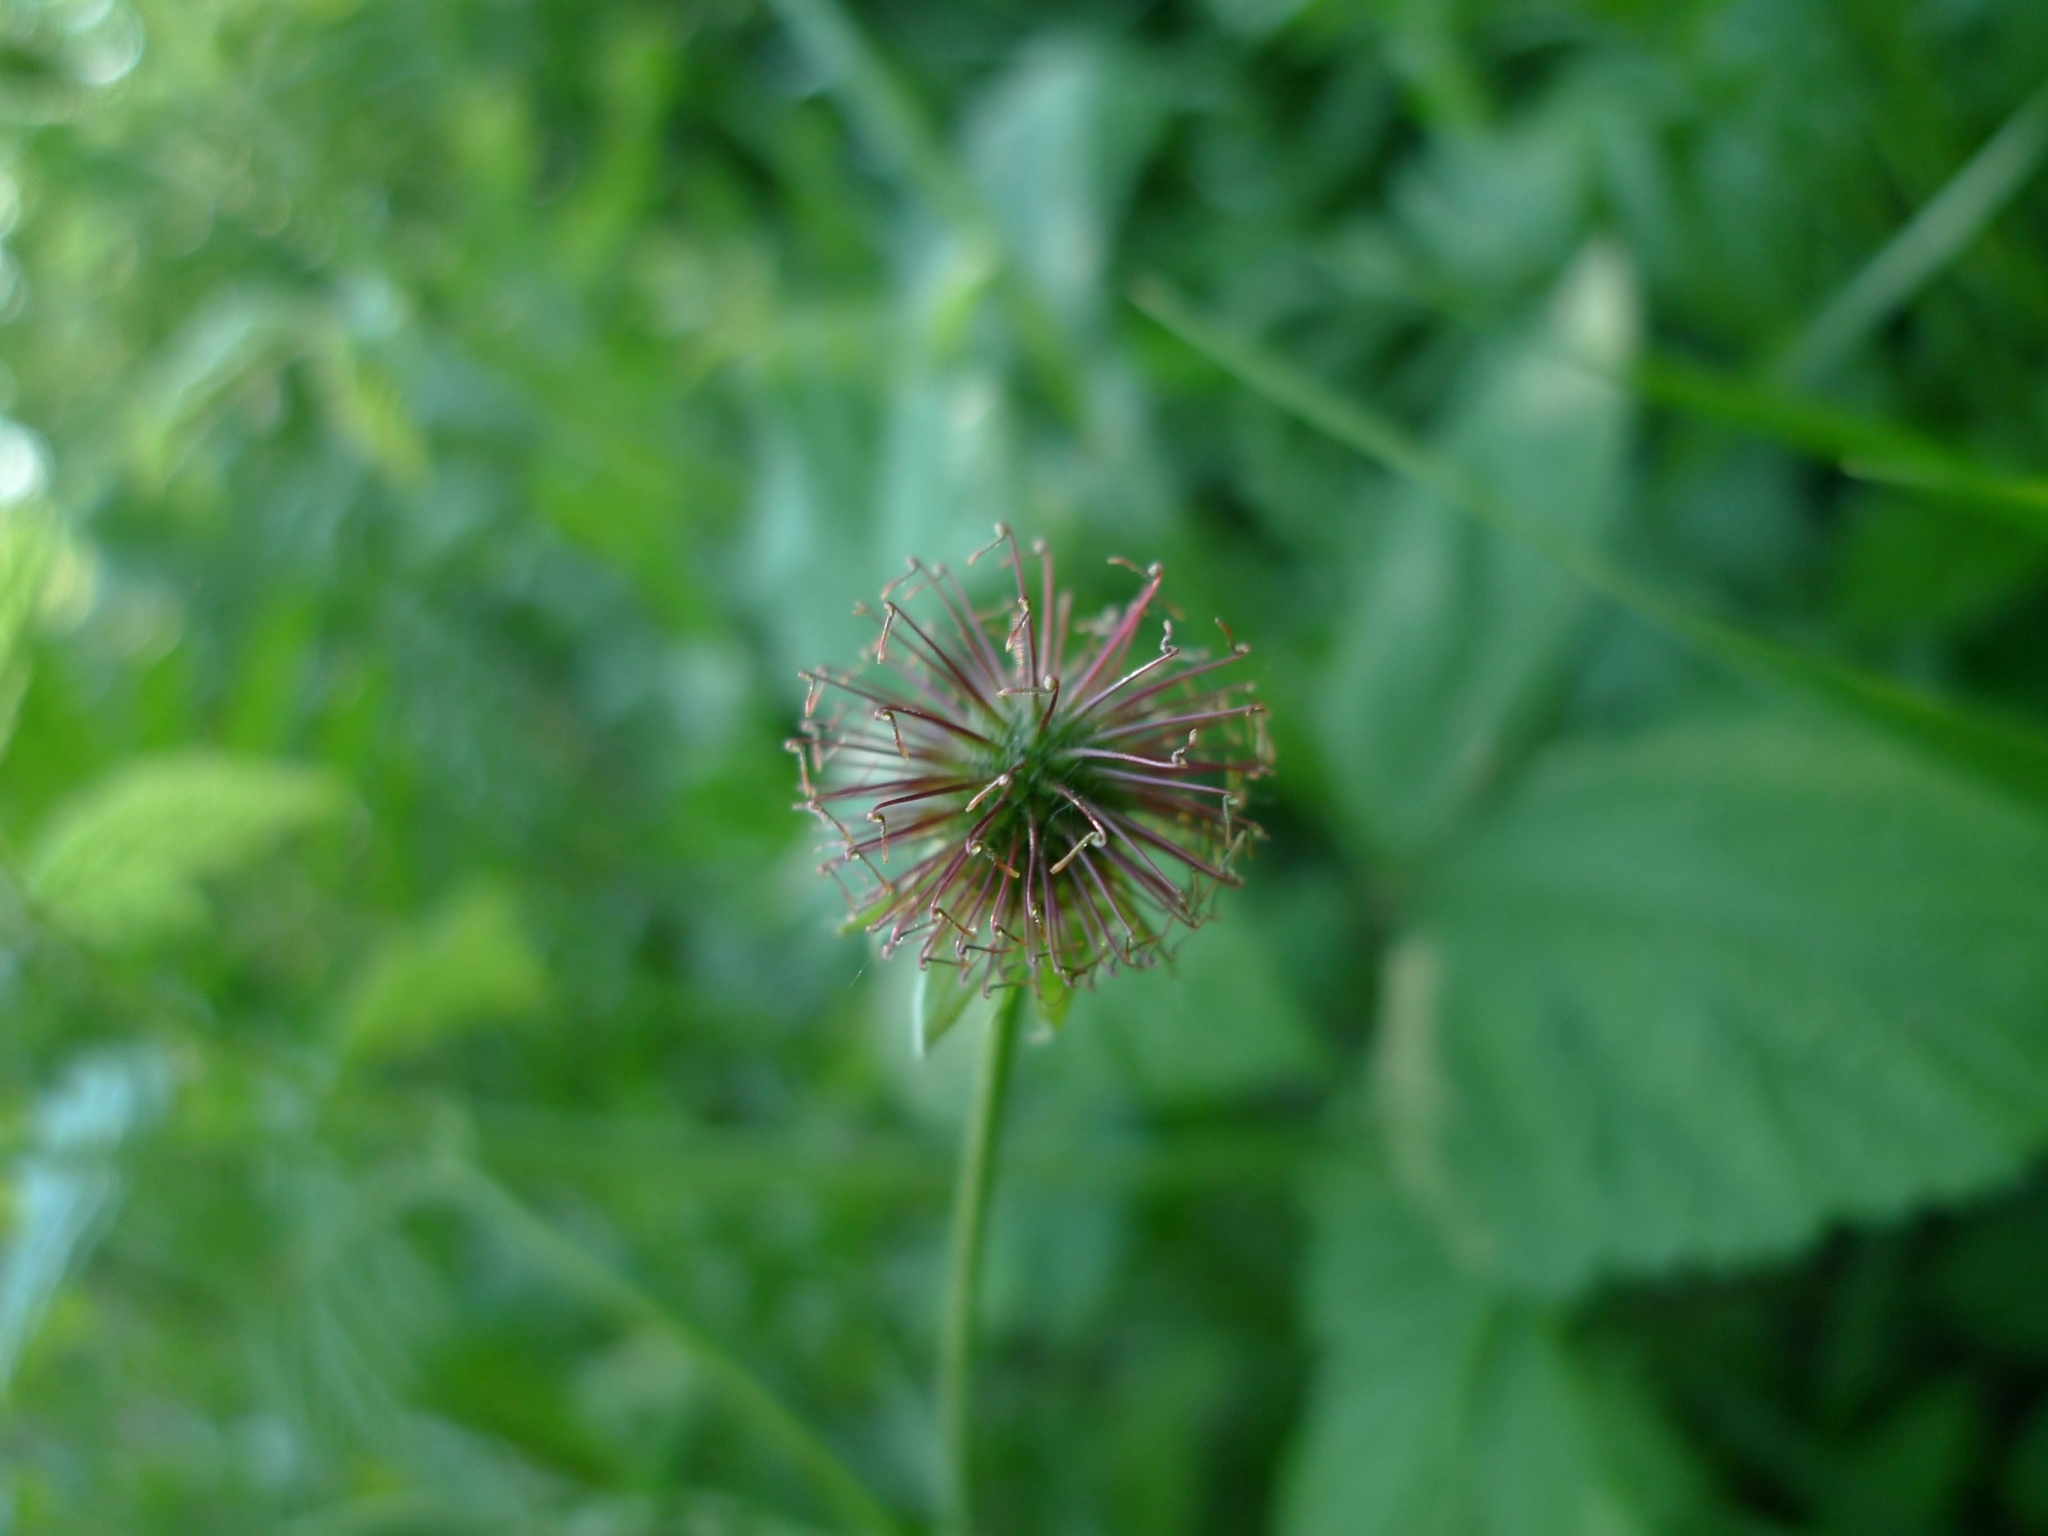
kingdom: Plantae
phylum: Tracheophyta
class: Magnoliopsida
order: Rosales
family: Rosaceae
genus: Geum
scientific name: Geum urbanum
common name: Wood avens
